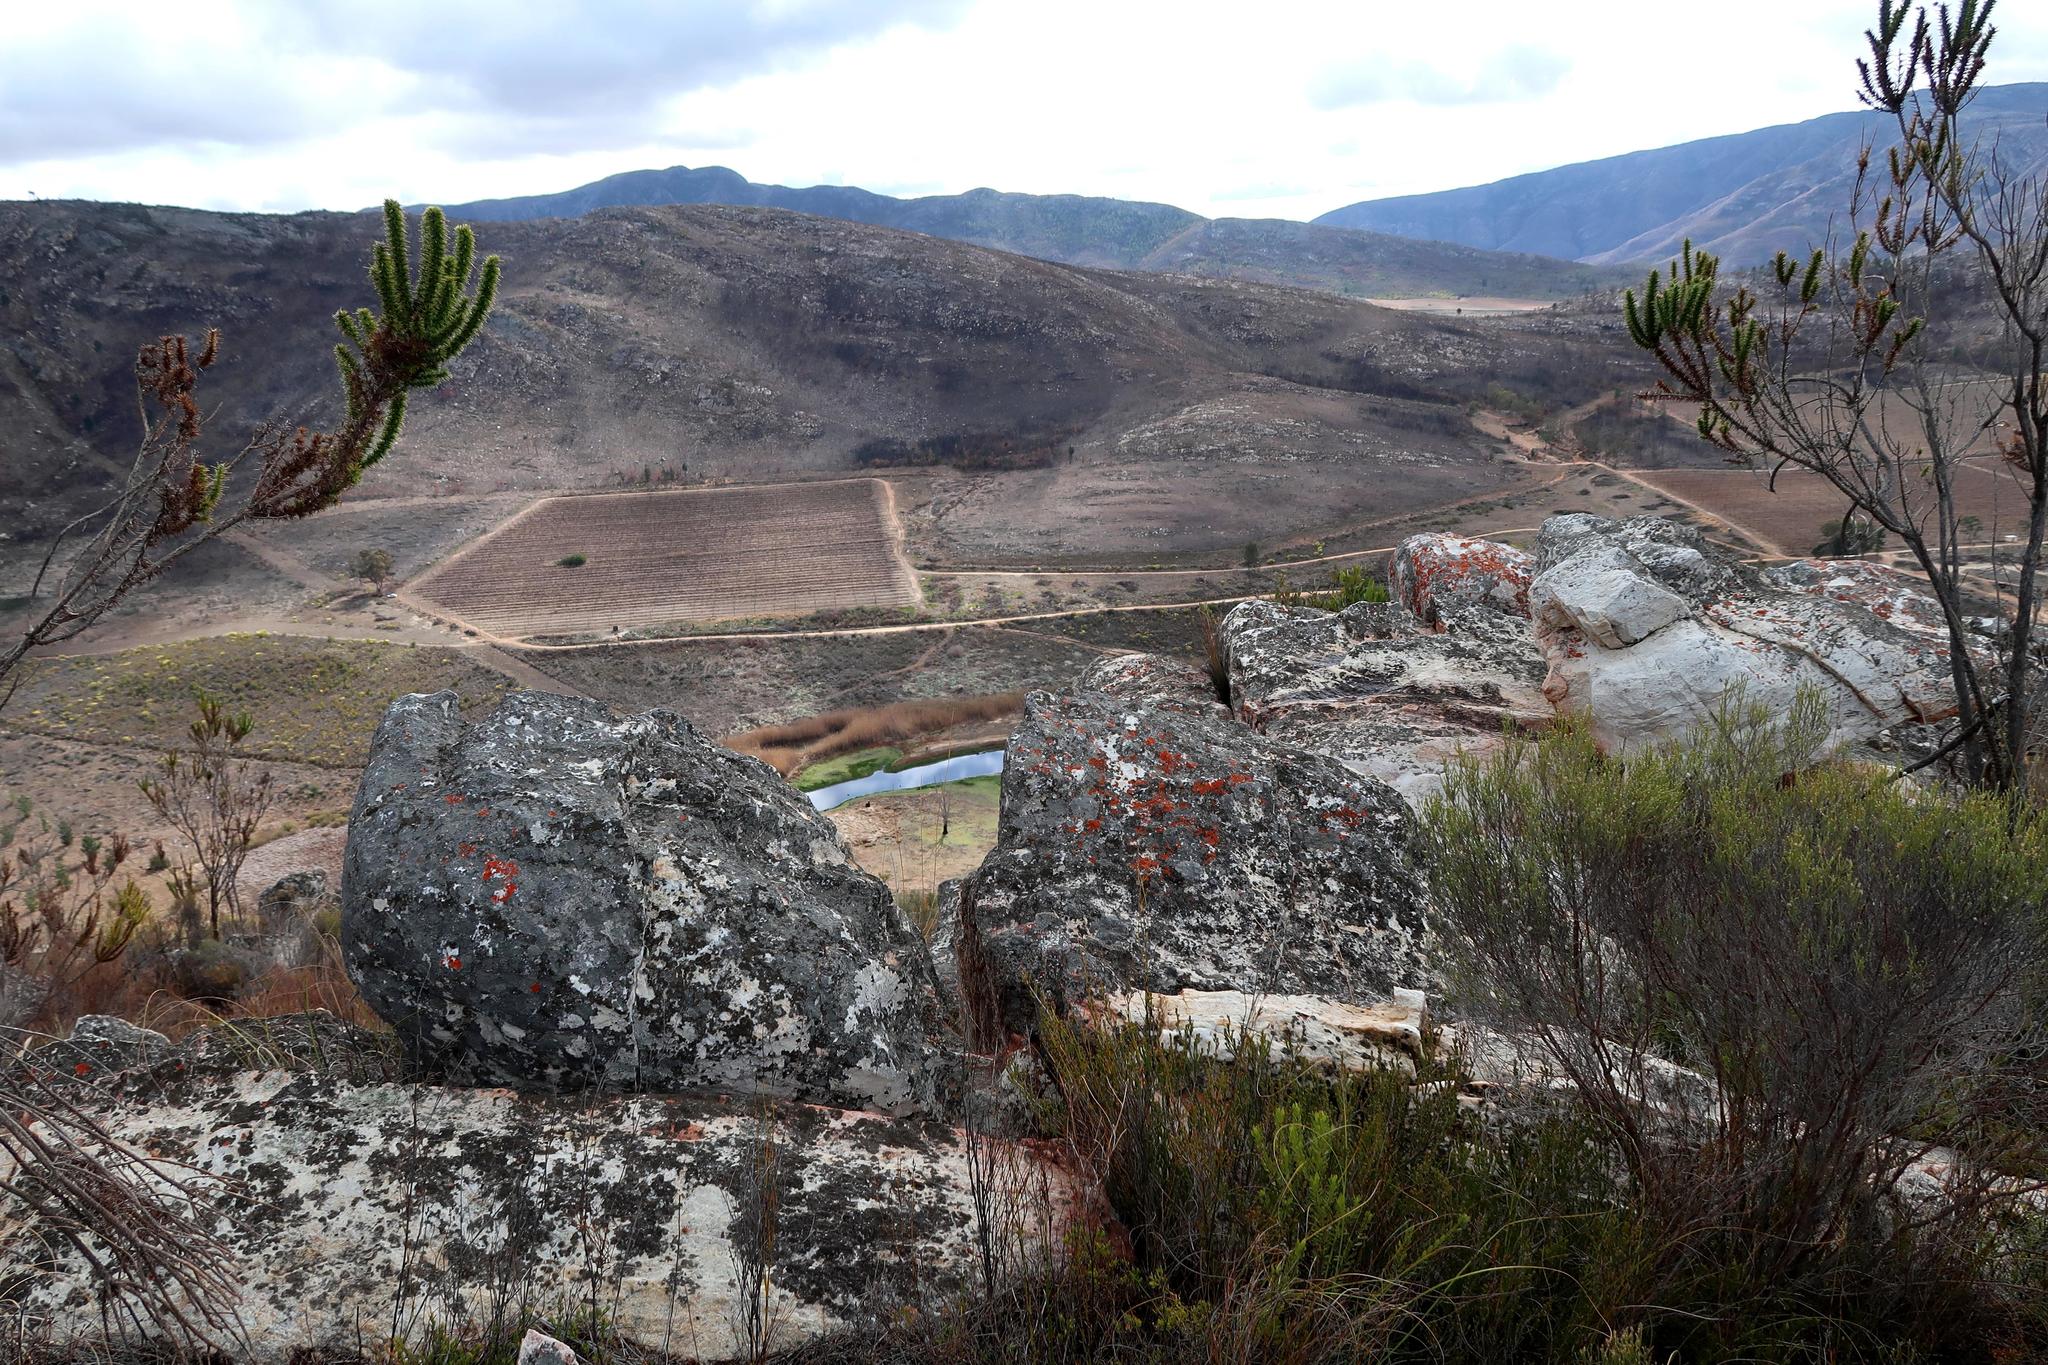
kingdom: Plantae
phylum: Tracheophyta
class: Magnoliopsida
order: Fabales
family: Fabaceae
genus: Aspalathus
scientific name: Aspalathus sceptrumaureum
